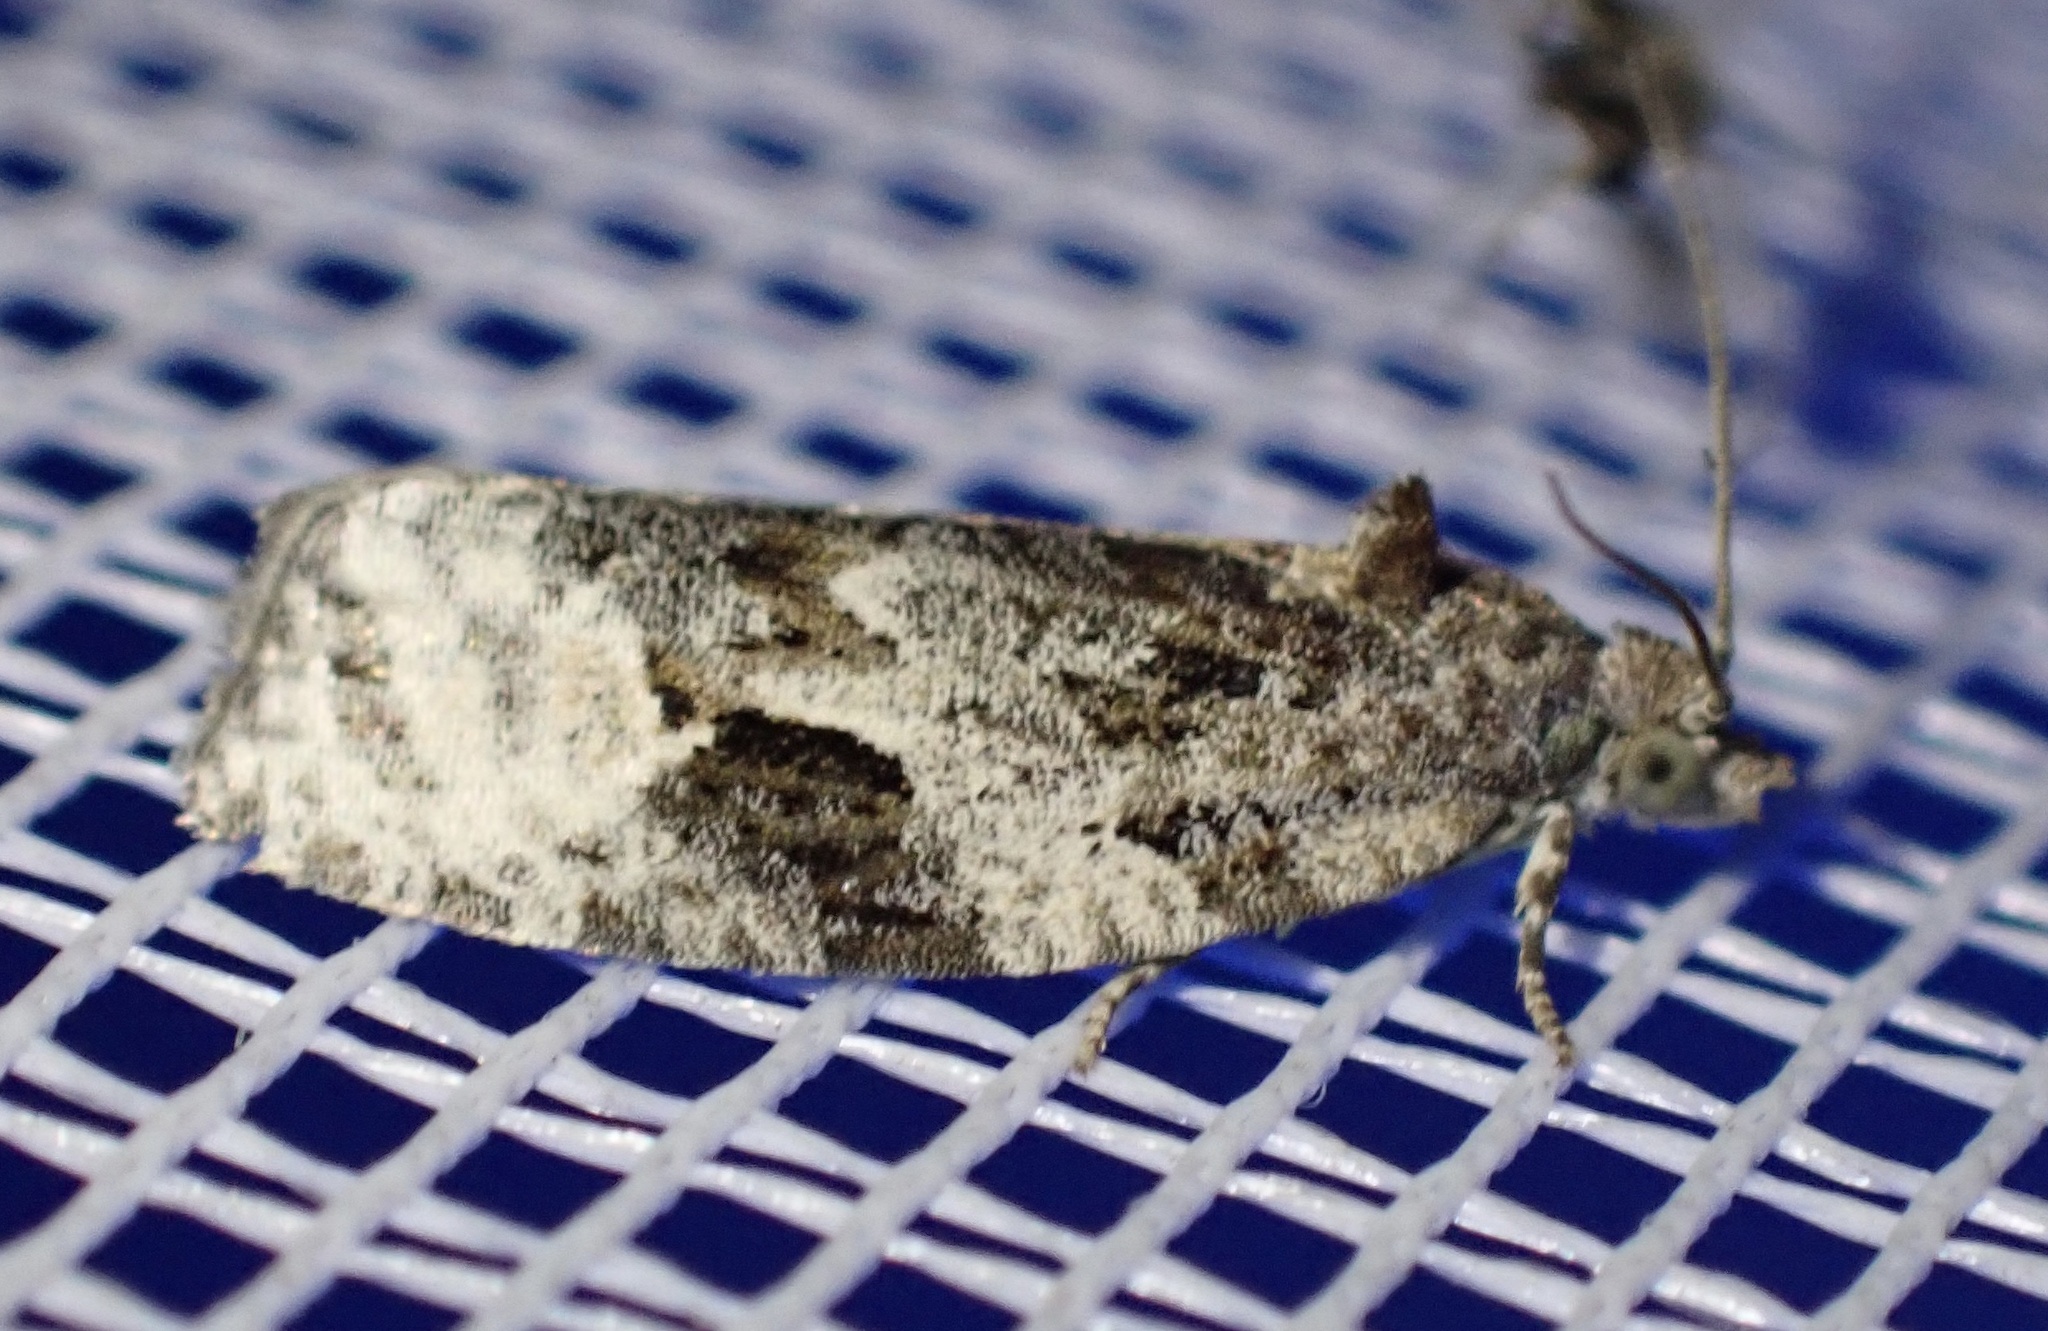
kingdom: Animalia
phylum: Arthropoda
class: Insecta
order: Lepidoptera
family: Tortricidae
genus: Apotomis
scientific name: Apotomis lineana
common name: Willow marble
